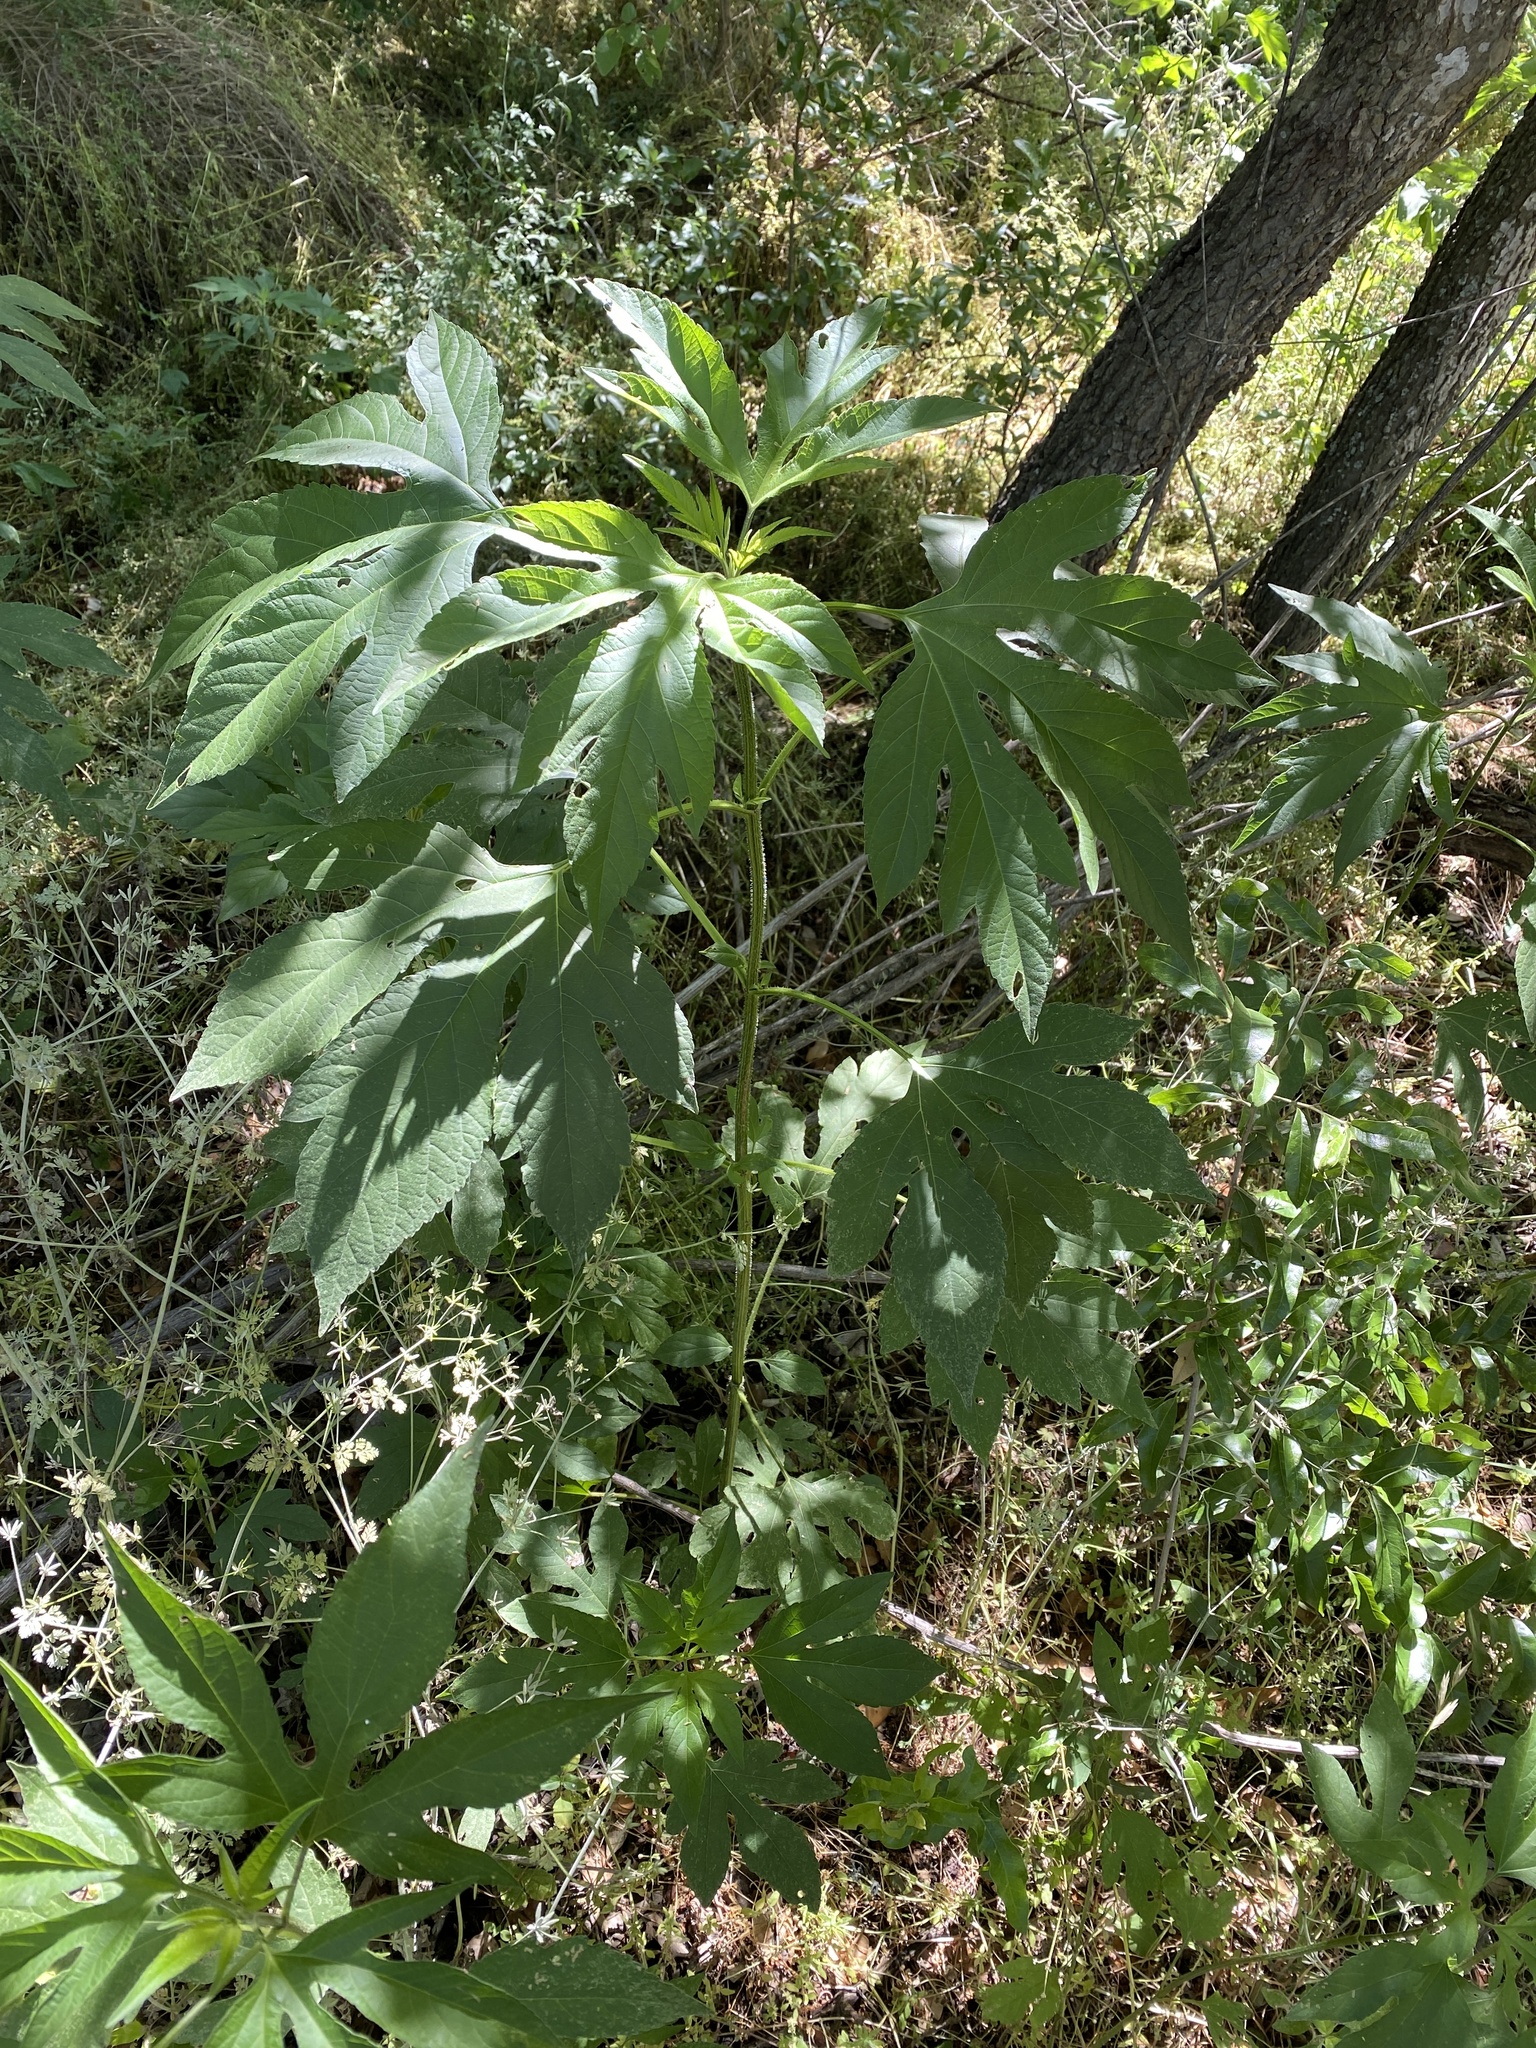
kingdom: Plantae
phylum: Tracheophyta
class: Magnoliopsida
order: Asterales
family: Asteraceae
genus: Ambrosia
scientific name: Ambrosia trifida
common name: Giant ragweed
